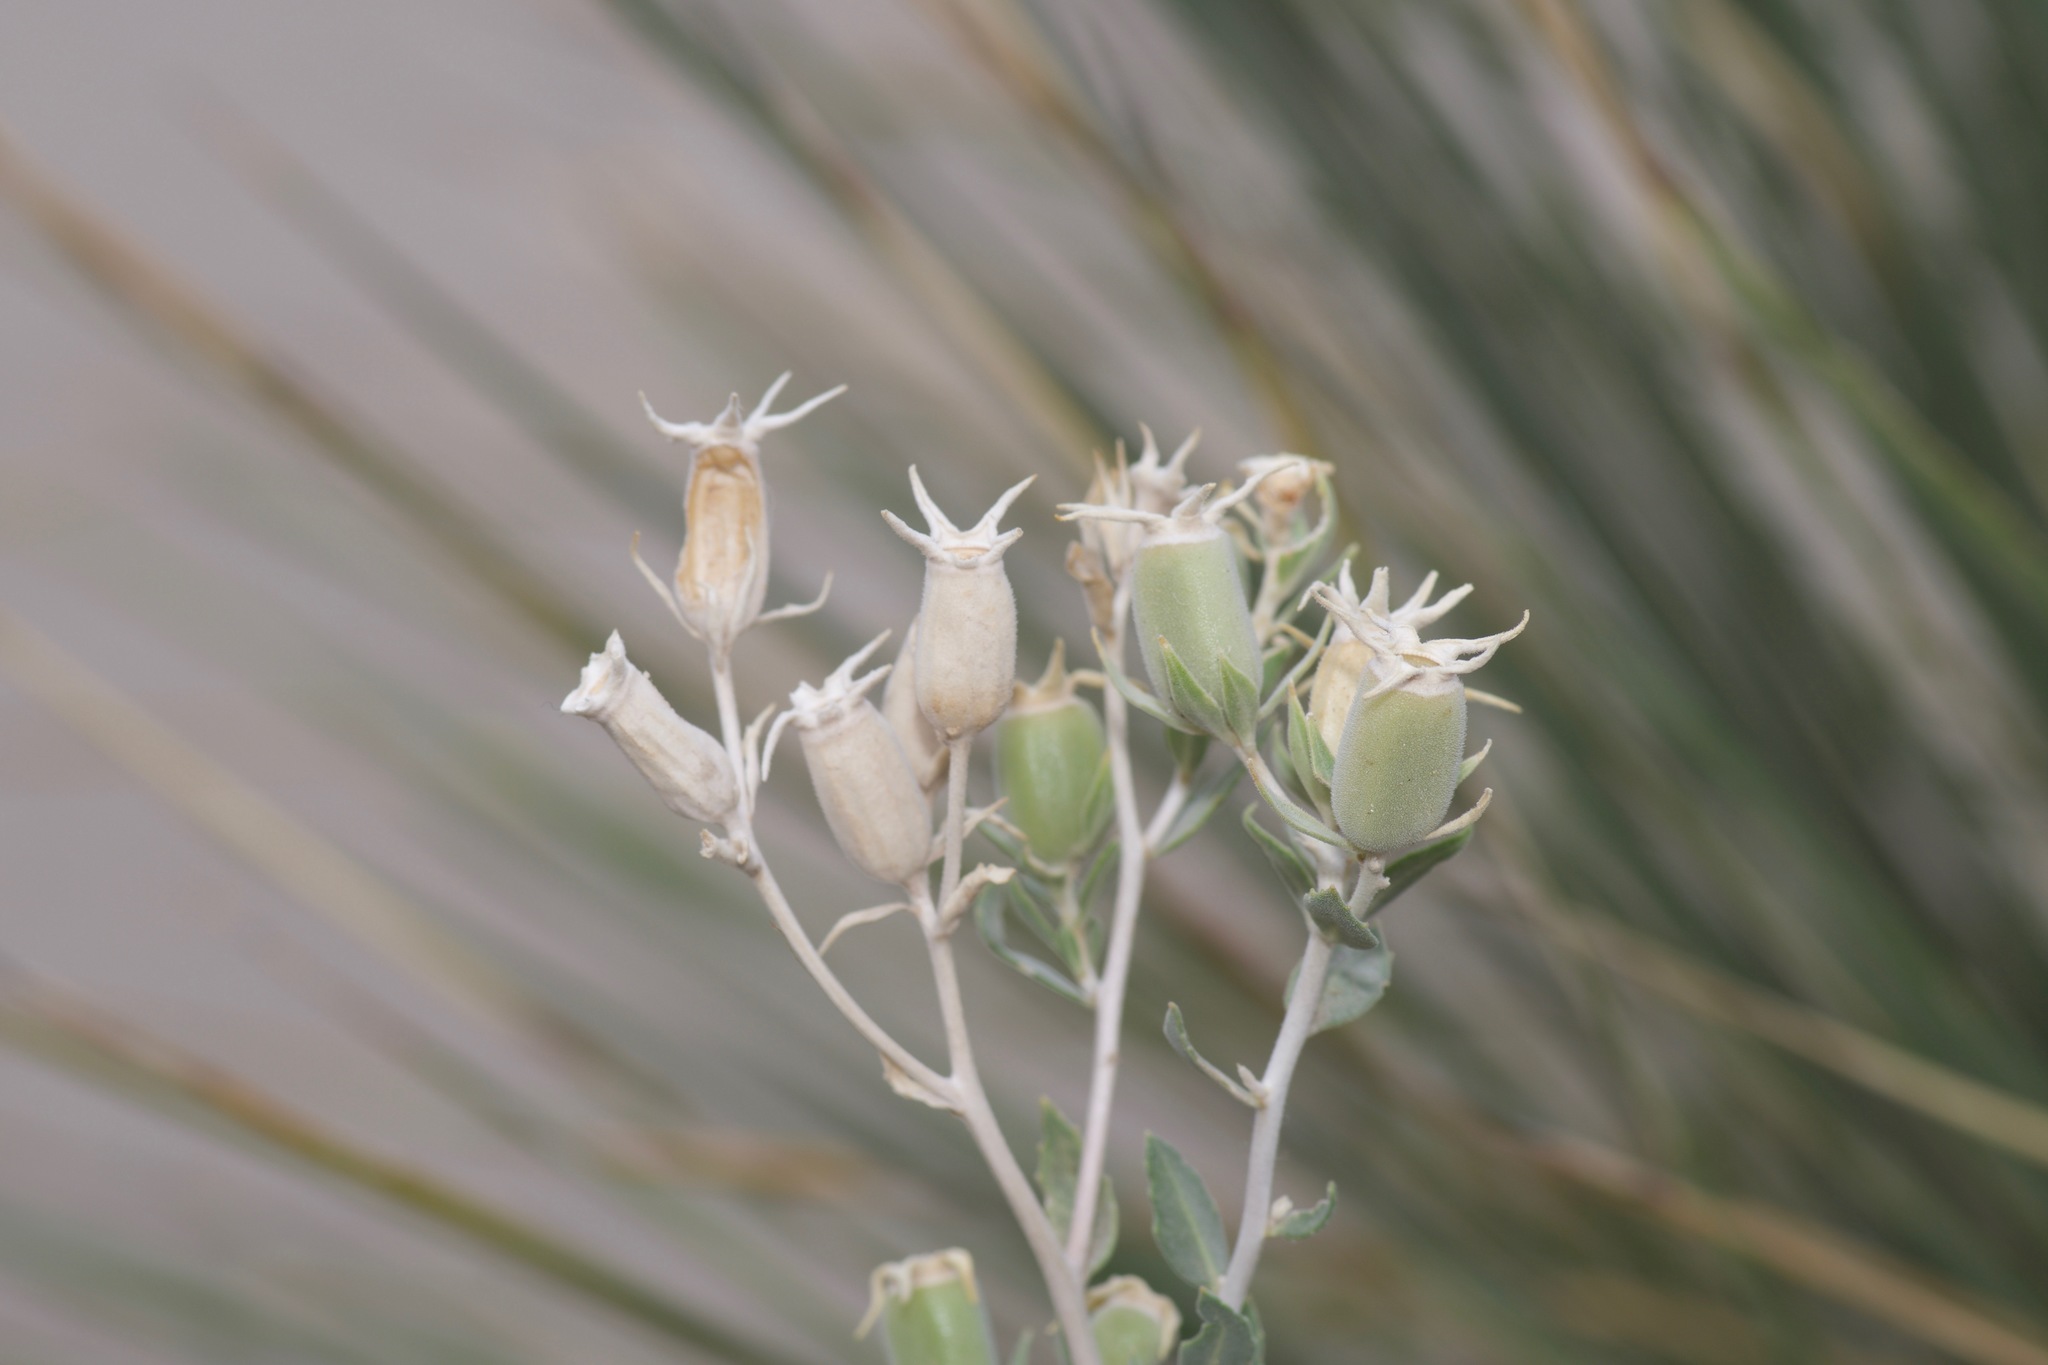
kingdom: Plantae
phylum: Tracheophyta
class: Magnoliopsida
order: Cornales
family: Loasaceae
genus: Mentzelia
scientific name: Mentzelia strictissima
